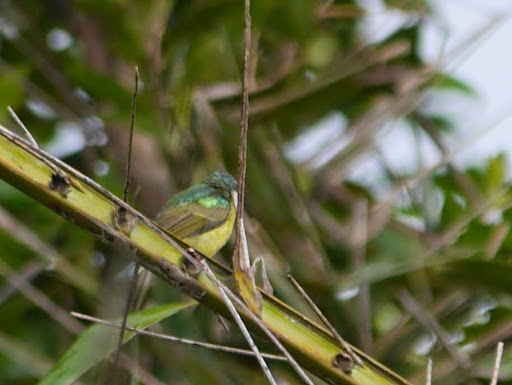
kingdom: Animalia
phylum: Chordata
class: Aves
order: Passeriformes
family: Nectariniidae
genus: Hedydipna
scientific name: Hedydipna collaris
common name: Collared sunbird
